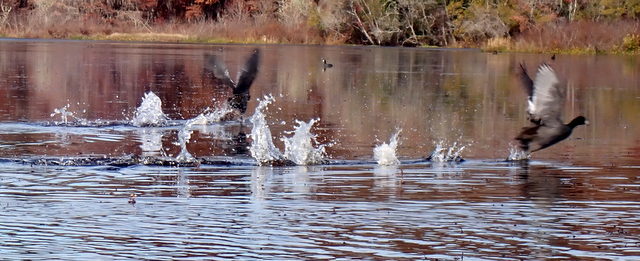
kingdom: Animalia
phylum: Chordata
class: Aves
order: Gruiformes
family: Rallidae
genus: Fulica
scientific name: Fulica americana
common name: American coot
